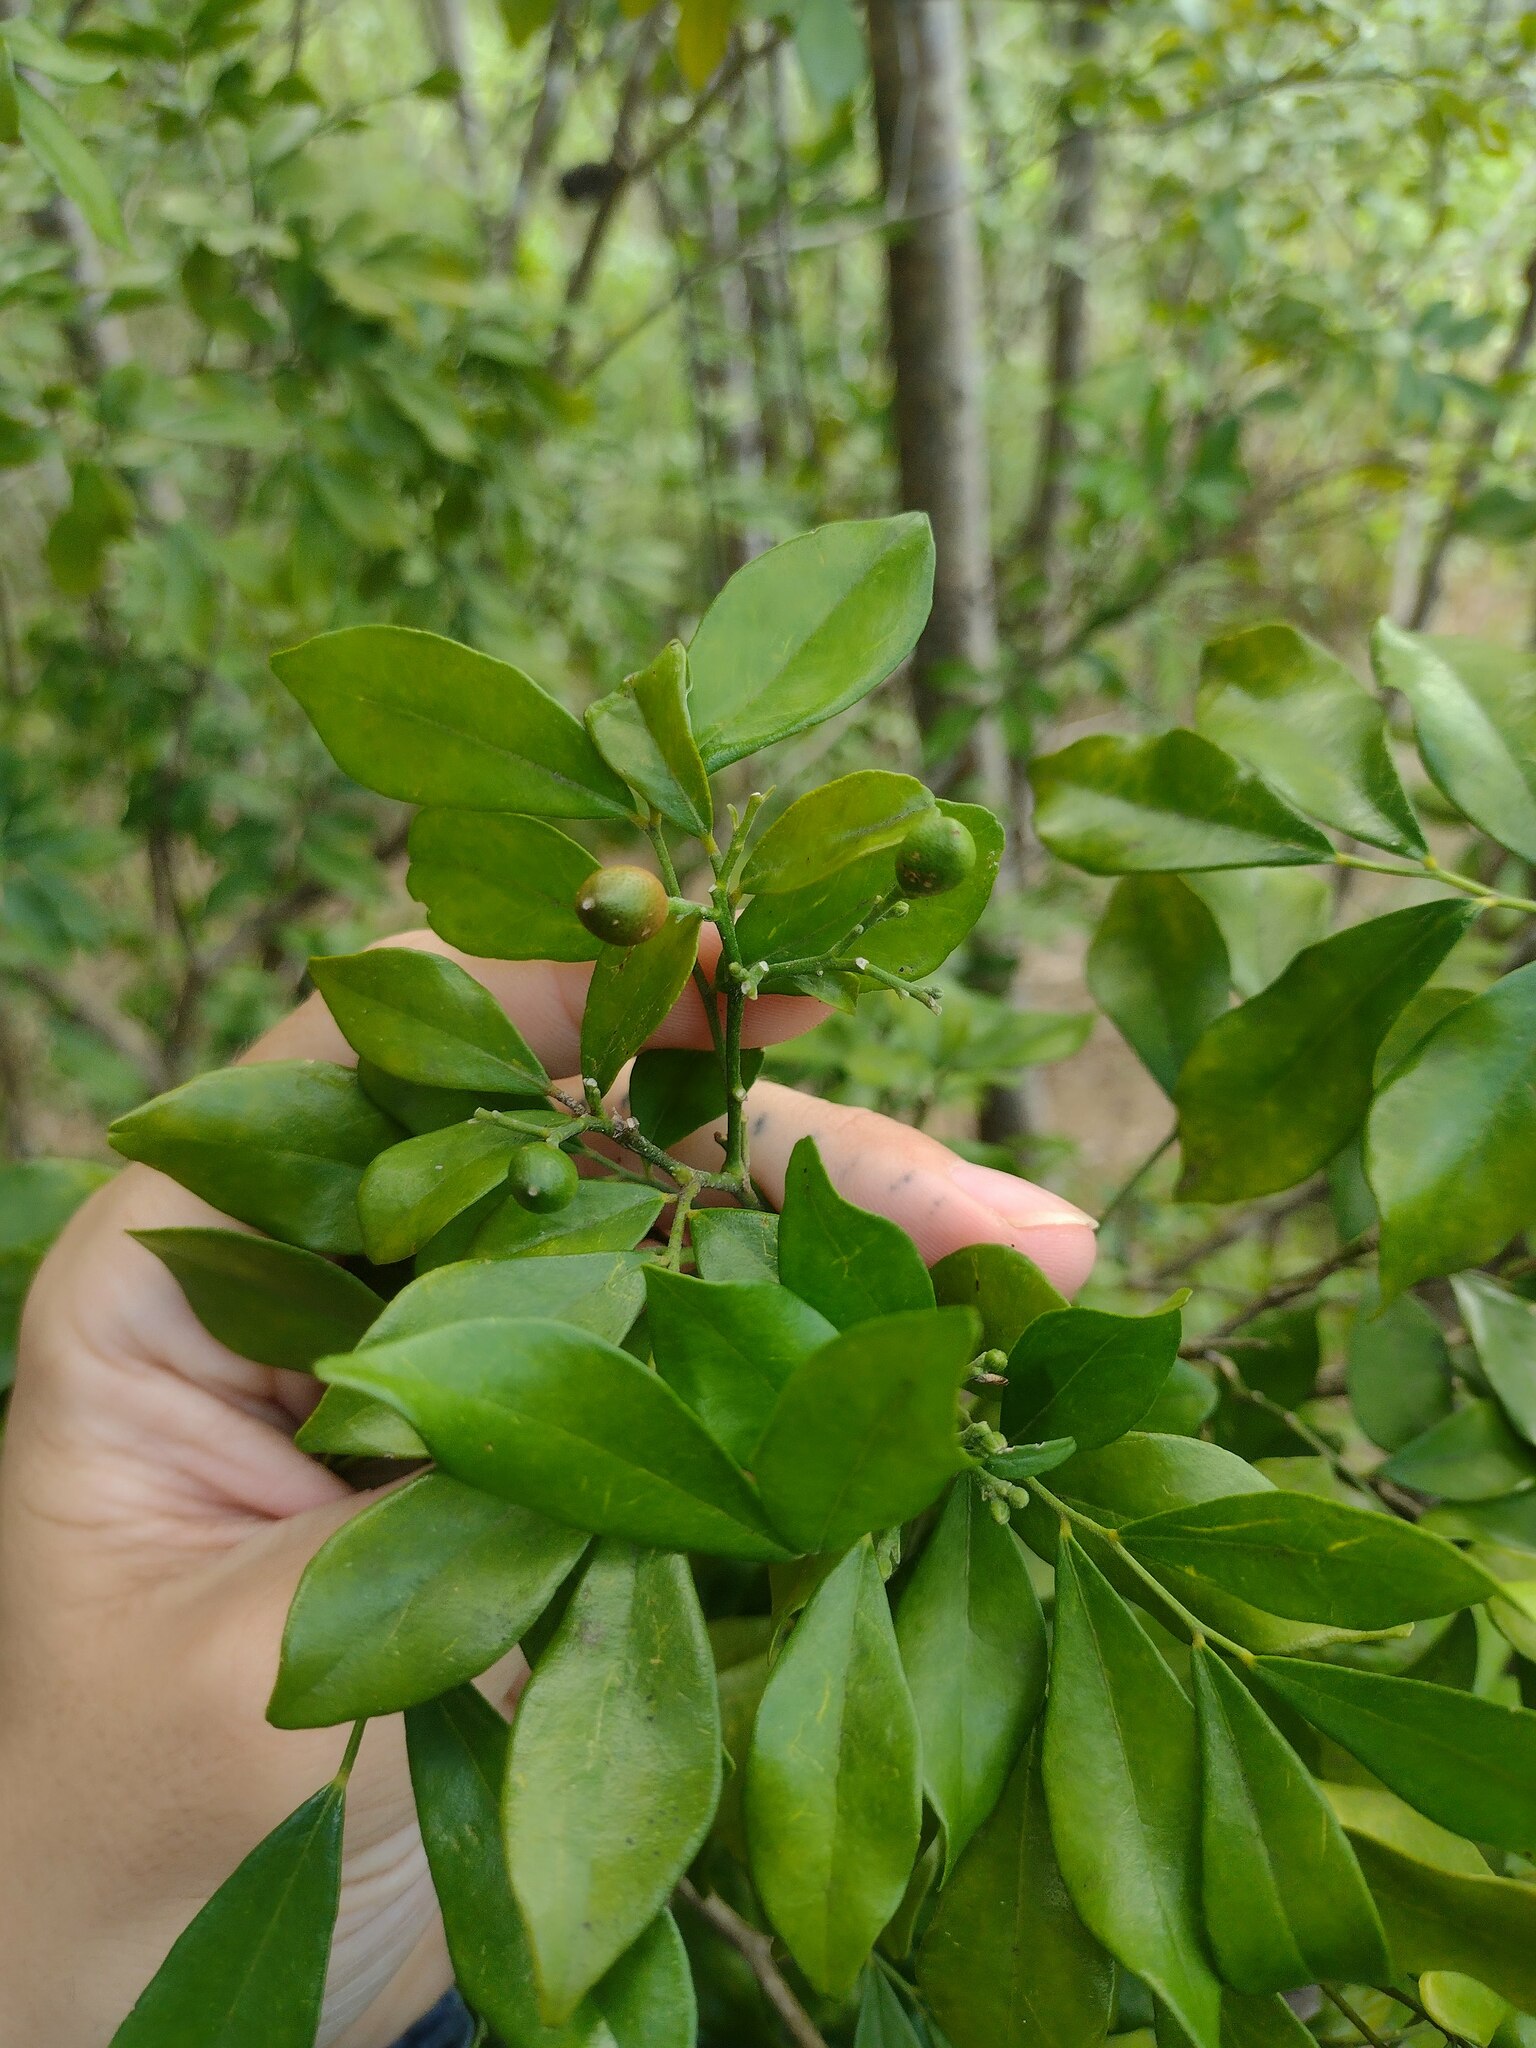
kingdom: Plantae
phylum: Tracheophyta
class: Magnoliopsida
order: Sapindales
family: Rutaceae
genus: Murraya
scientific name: Murraya paniculata
